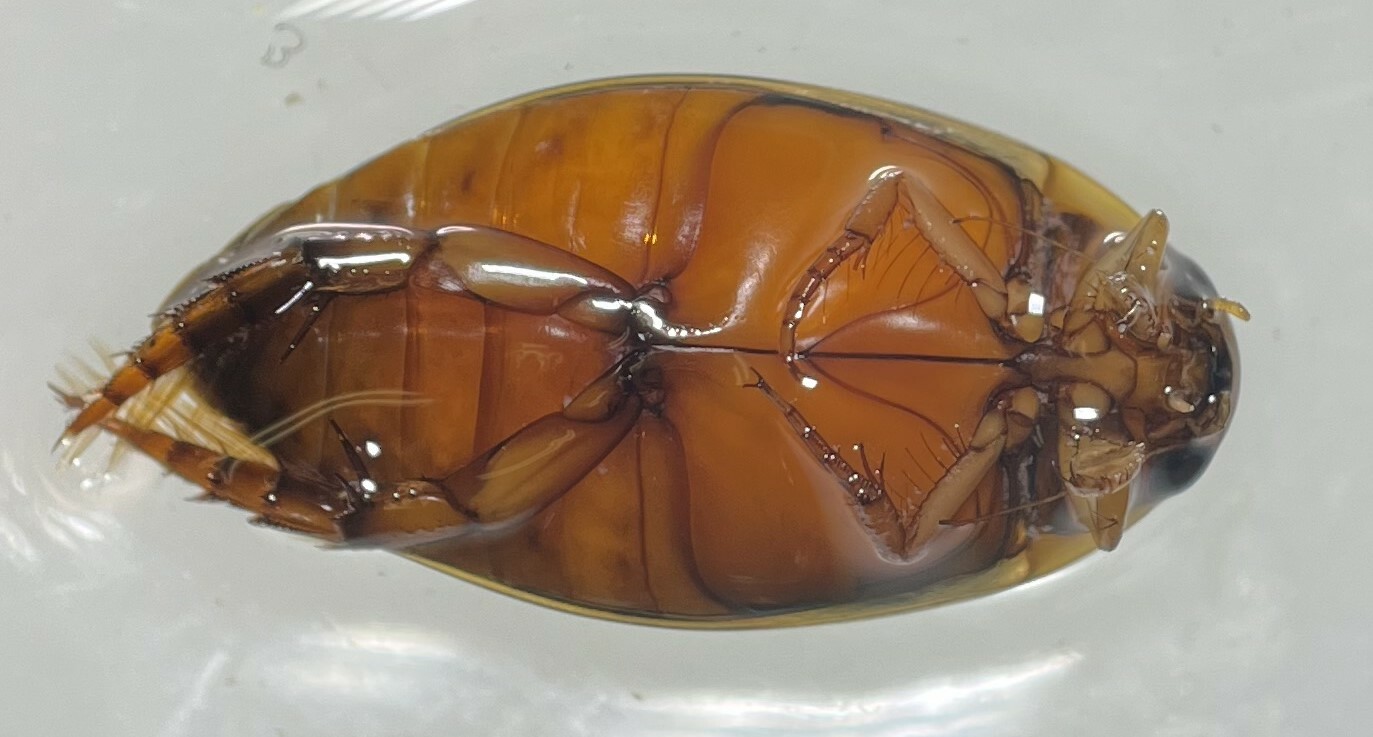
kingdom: Animalia
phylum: Arthropoda
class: Insecta
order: Coleoptera
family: Dytiscidae
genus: Thermonectus
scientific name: Thermonectus nigrofasciatus
